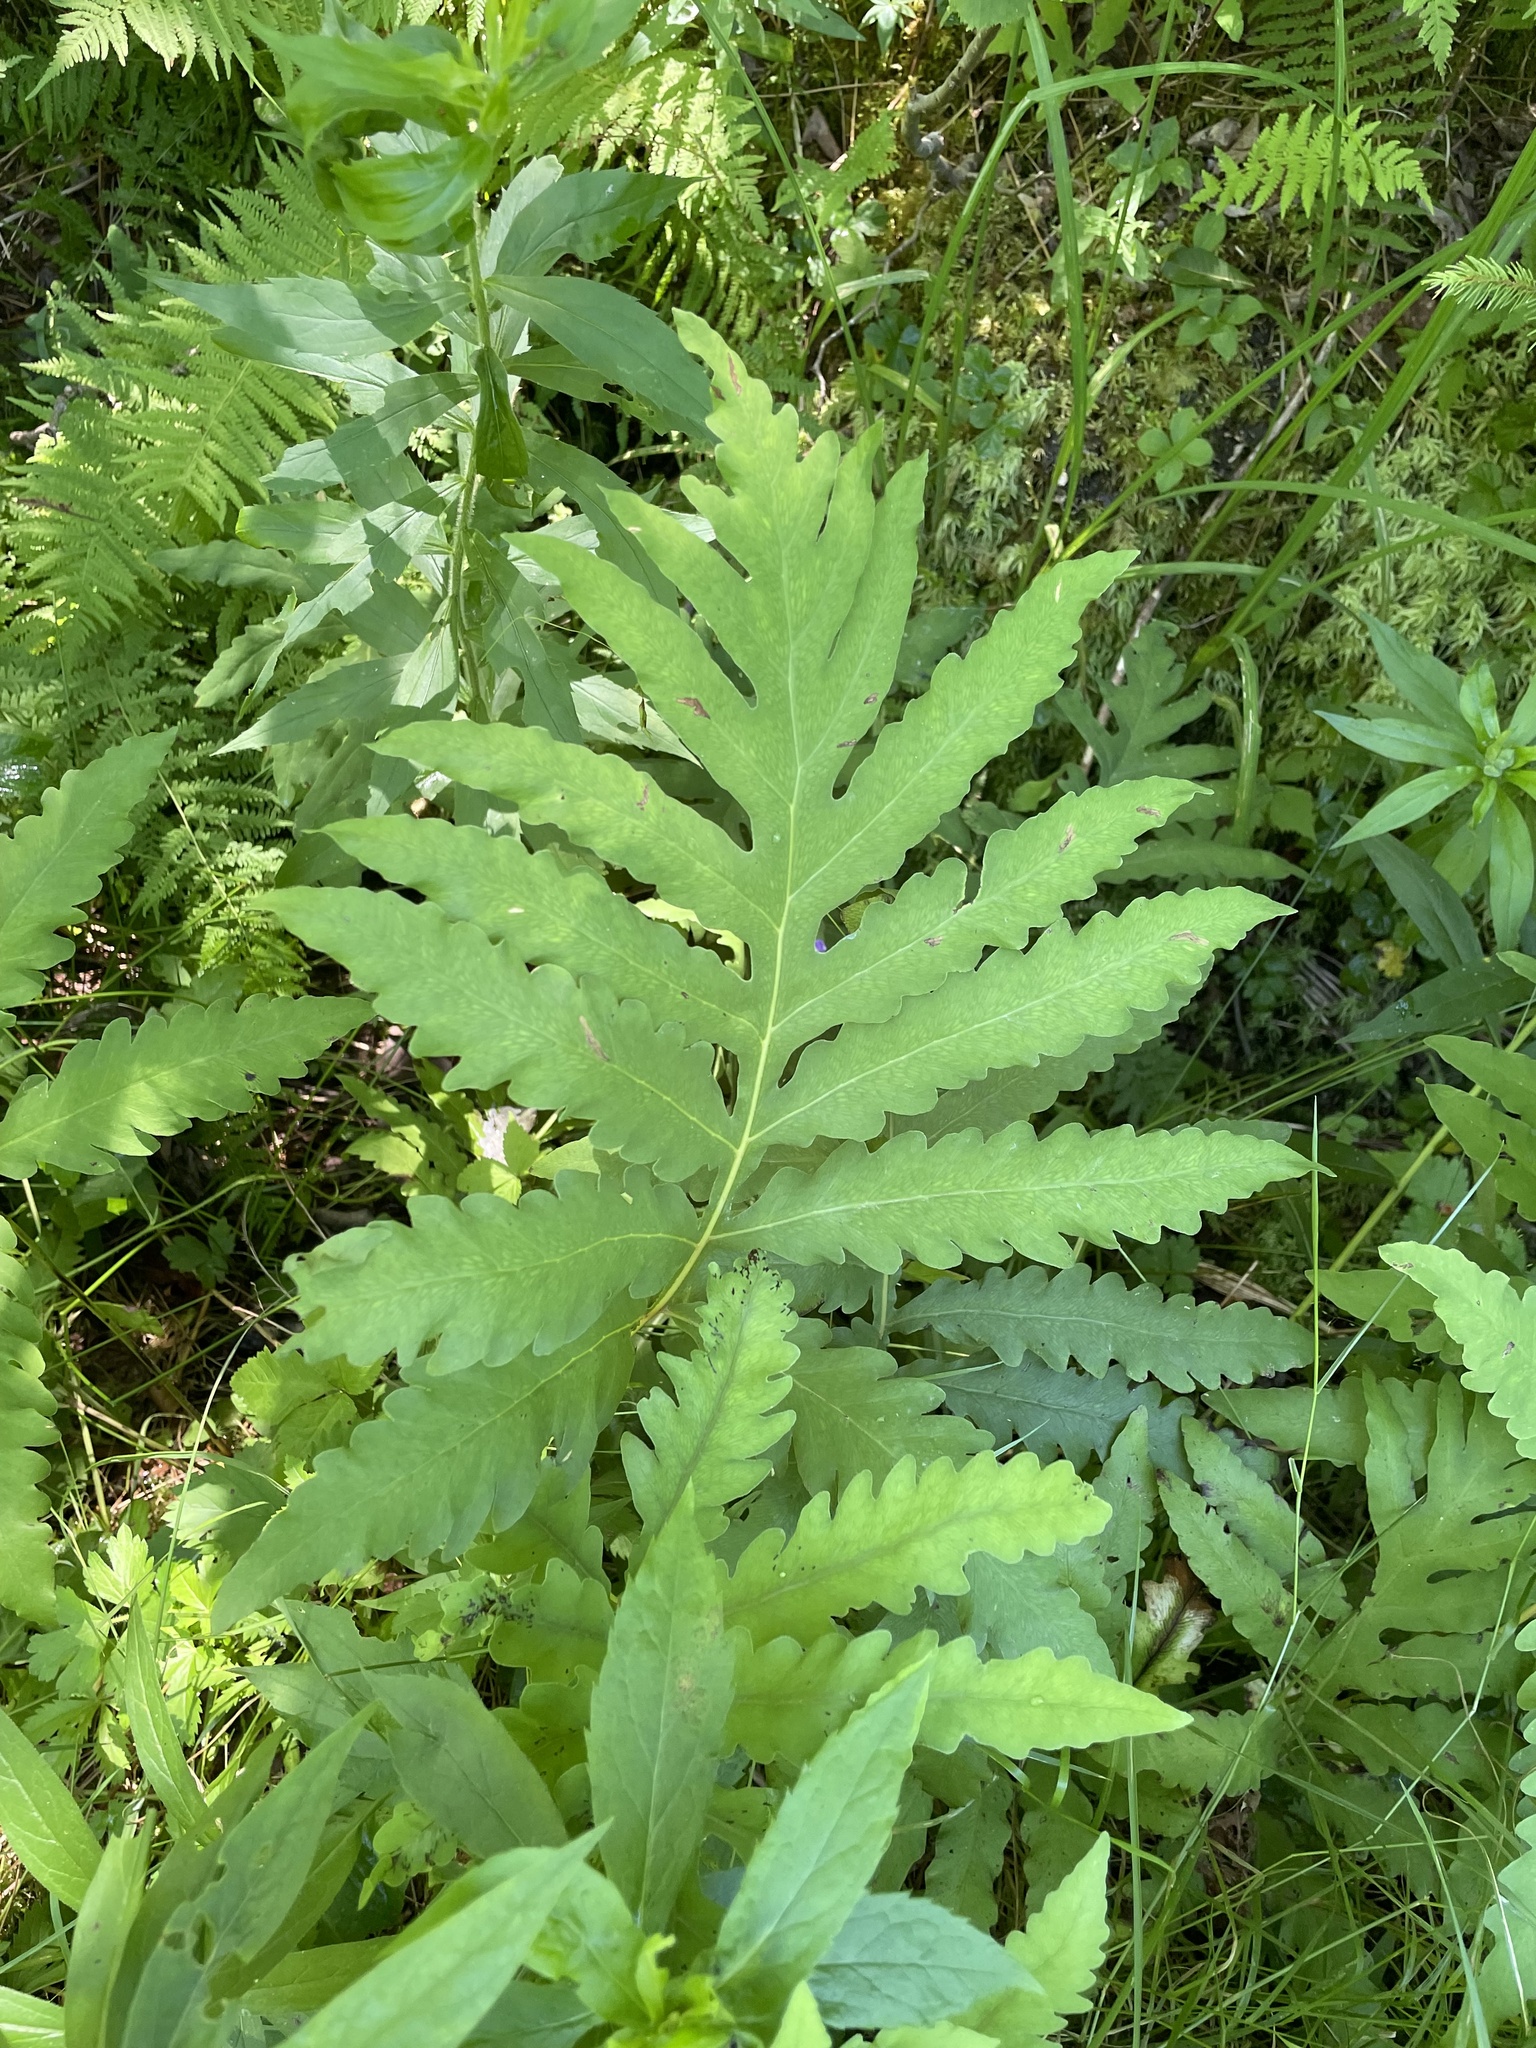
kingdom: Plantae
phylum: Tracheophyta
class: Polypodiopsida
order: Polypodiales
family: Onocleaceae
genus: Onoclea
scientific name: Onoclea sensibilis
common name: Sensitive fern
